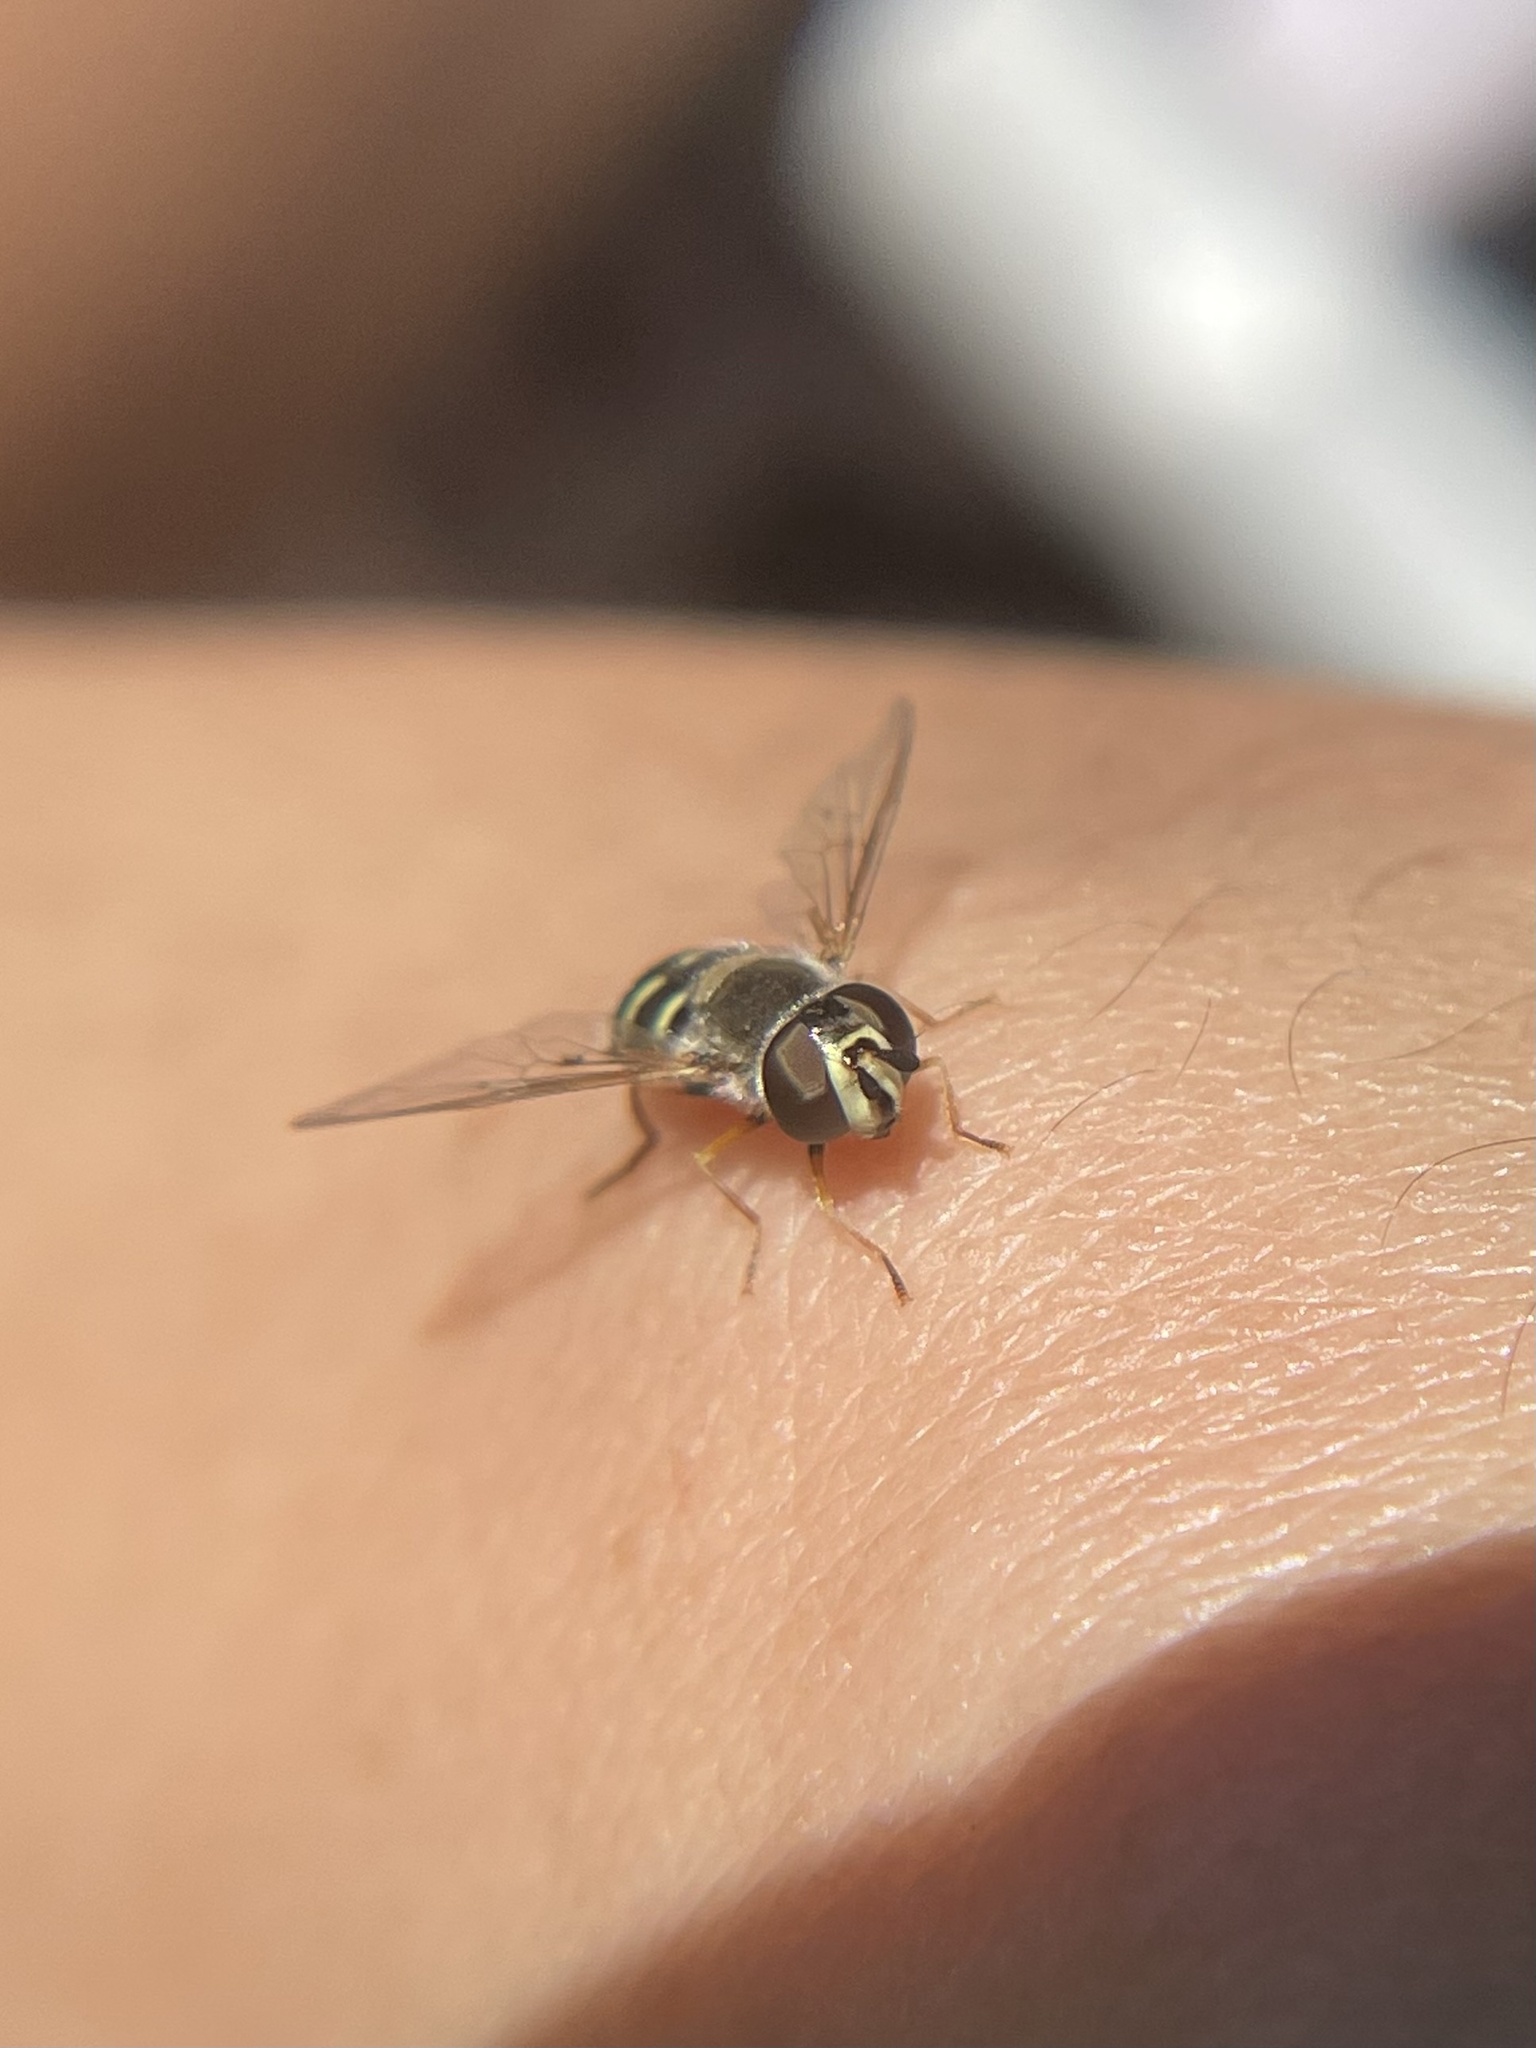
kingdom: Animalia
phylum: Arthropoda
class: Insecta
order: Diptera
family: Syrphidae
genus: Eupeodes
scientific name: Eupeodes volucris
